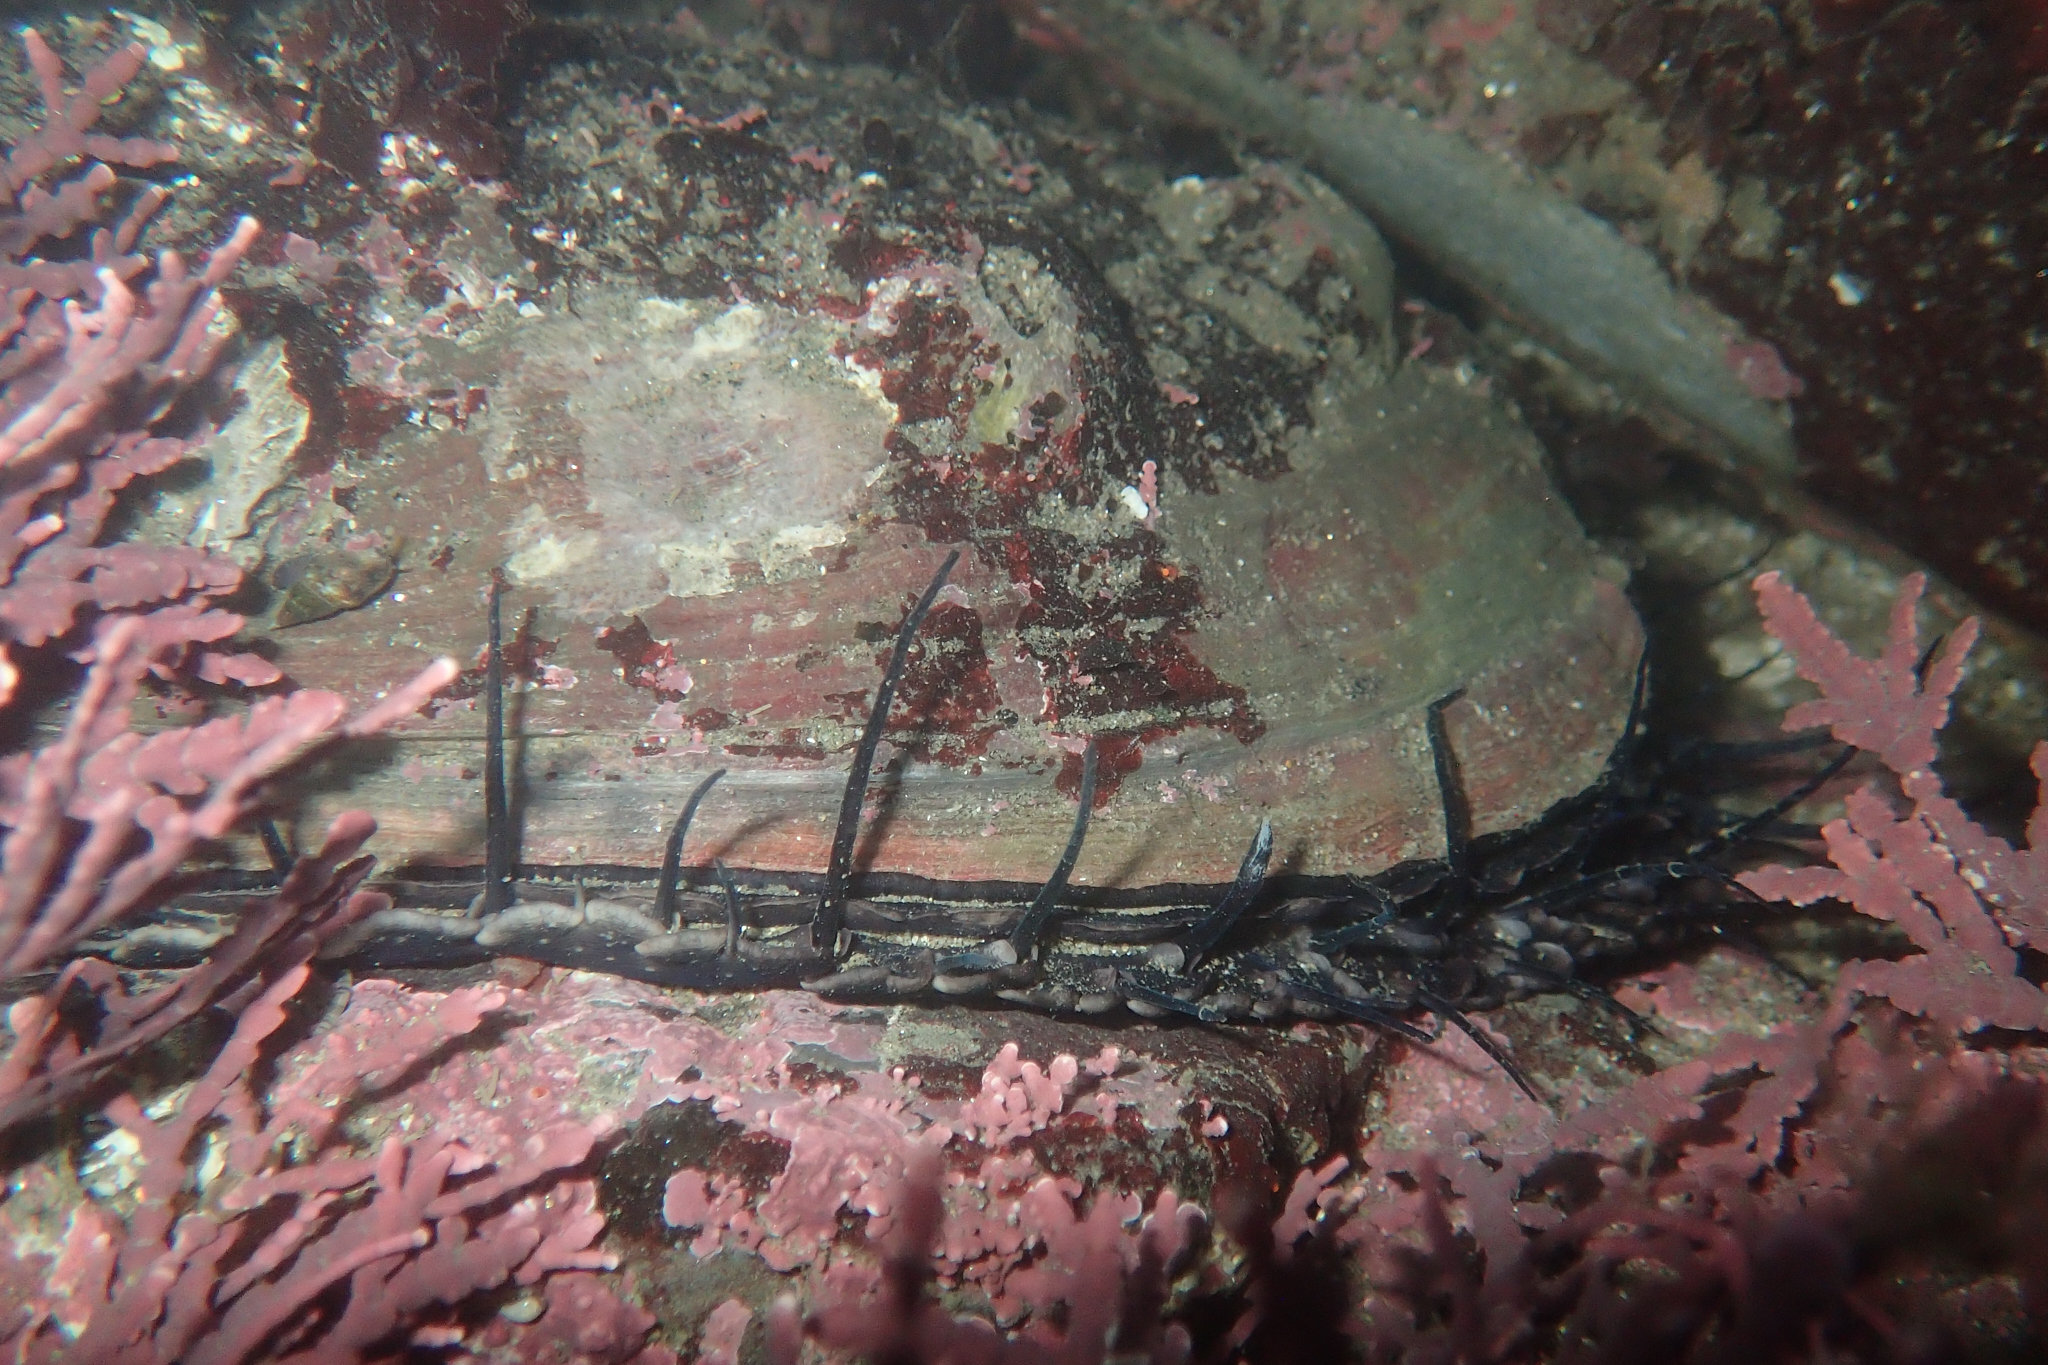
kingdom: Animalia
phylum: Mollusca
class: Gastropoda
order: Lepetellida
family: Haliotidae
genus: Haliotis
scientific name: Haliotis rufescens
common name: Red abalone
